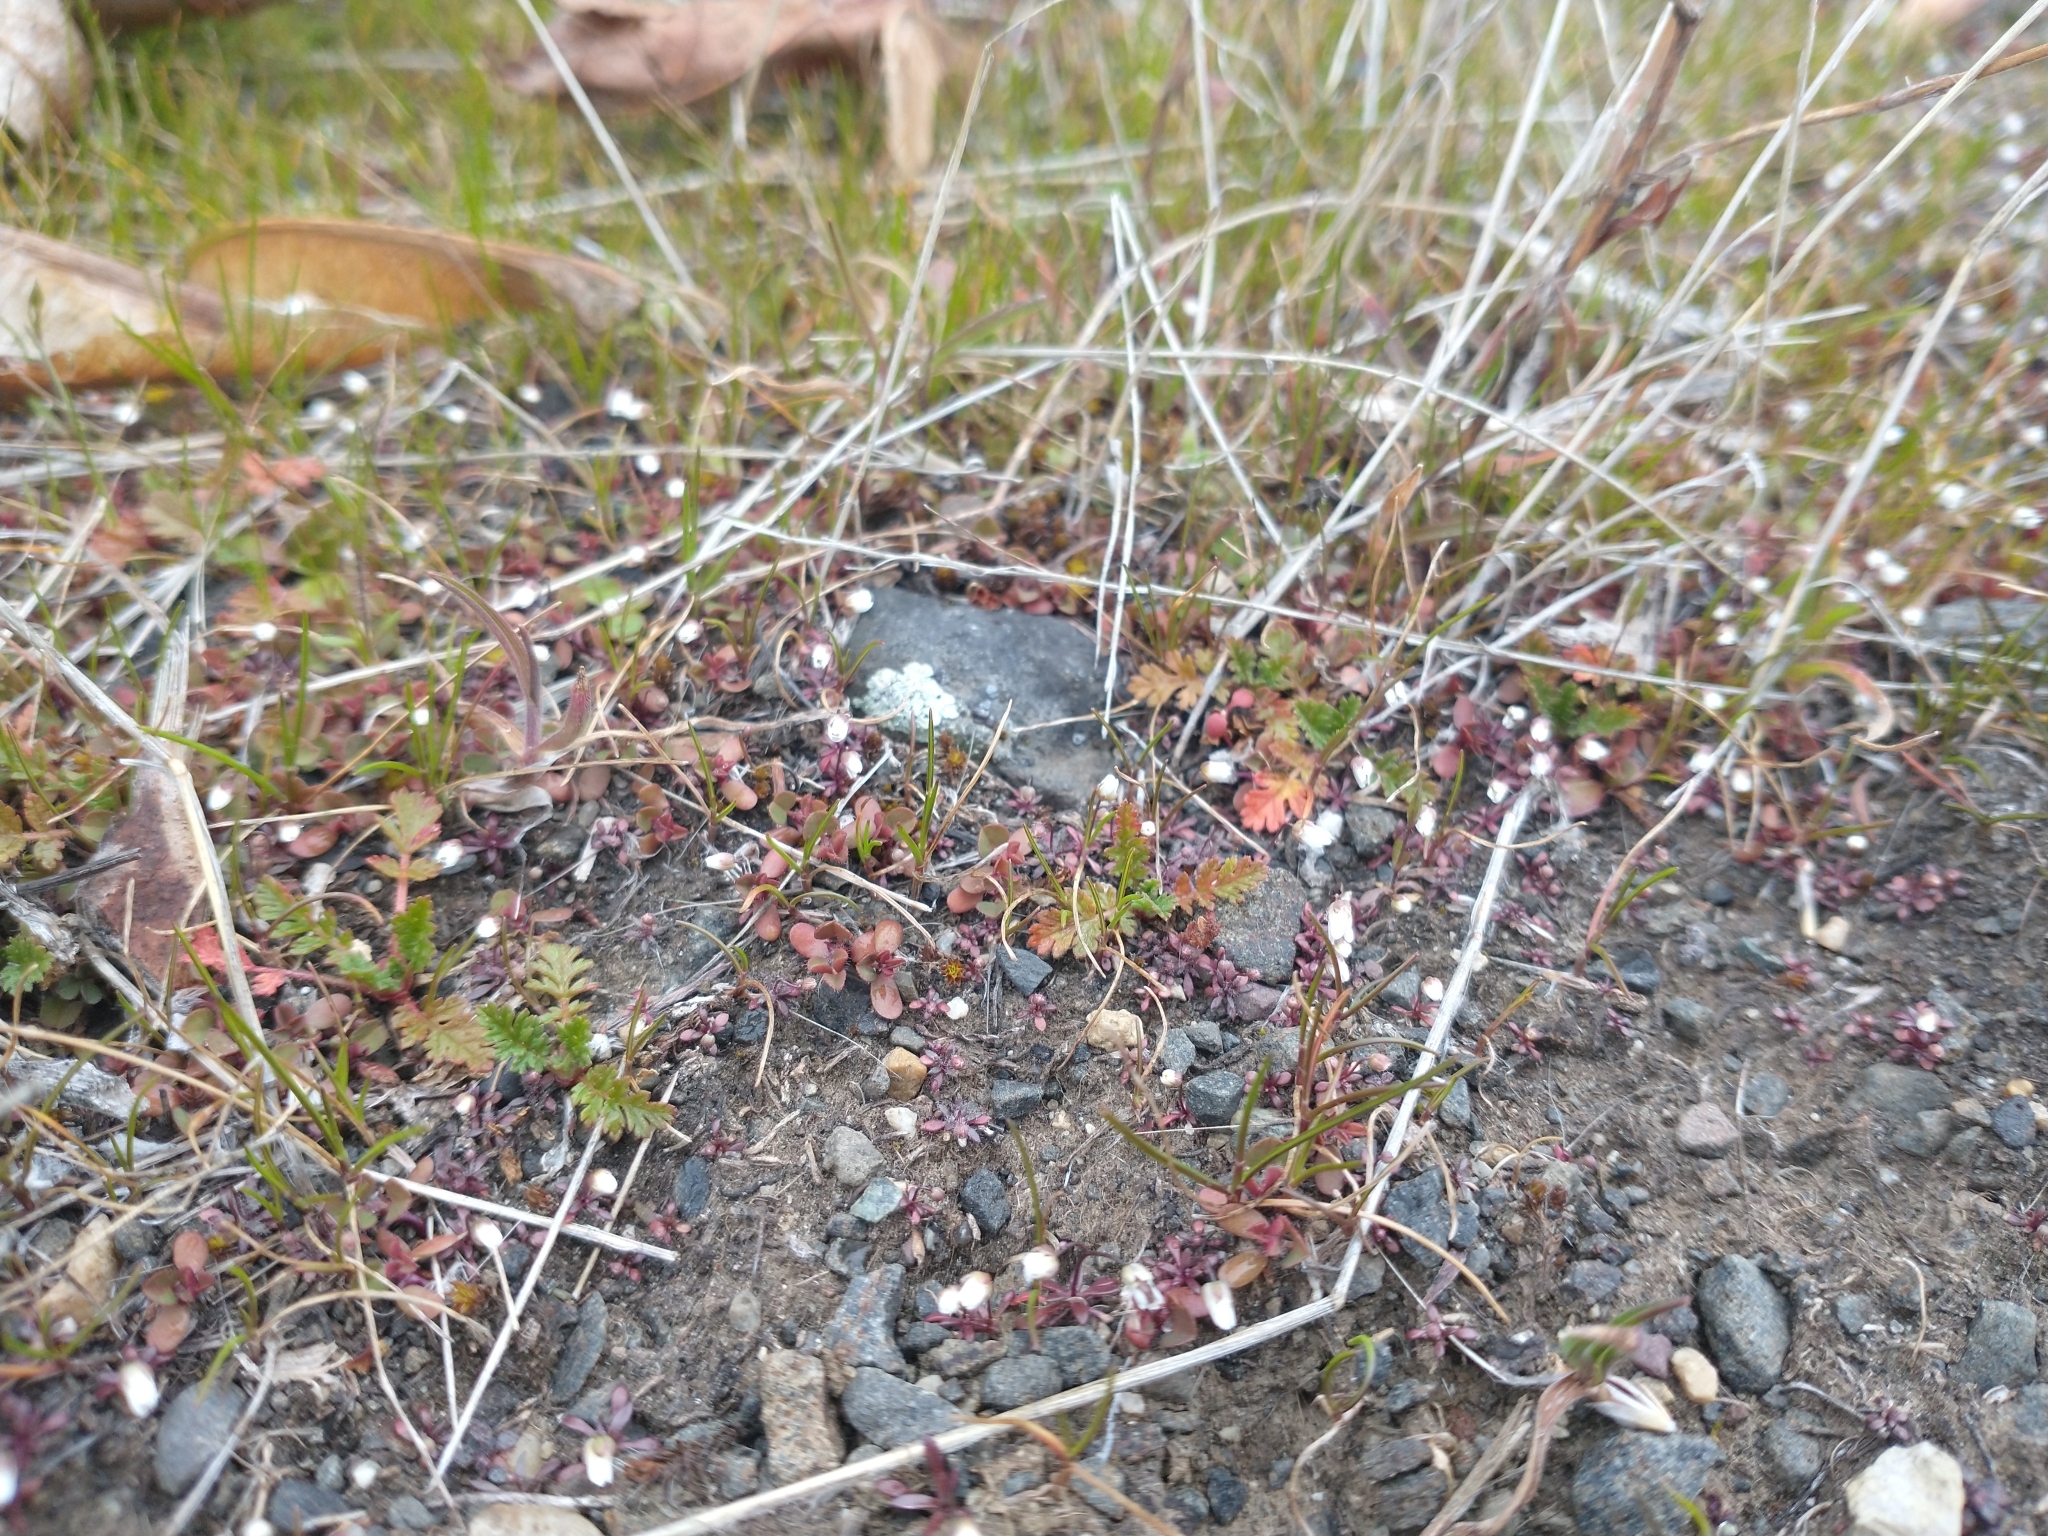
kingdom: Plantae
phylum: Tracheophyta
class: Magnoliopsida
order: Brassicales
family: Brassicaceae
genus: Draba
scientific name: Draba verna
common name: Spring draba
